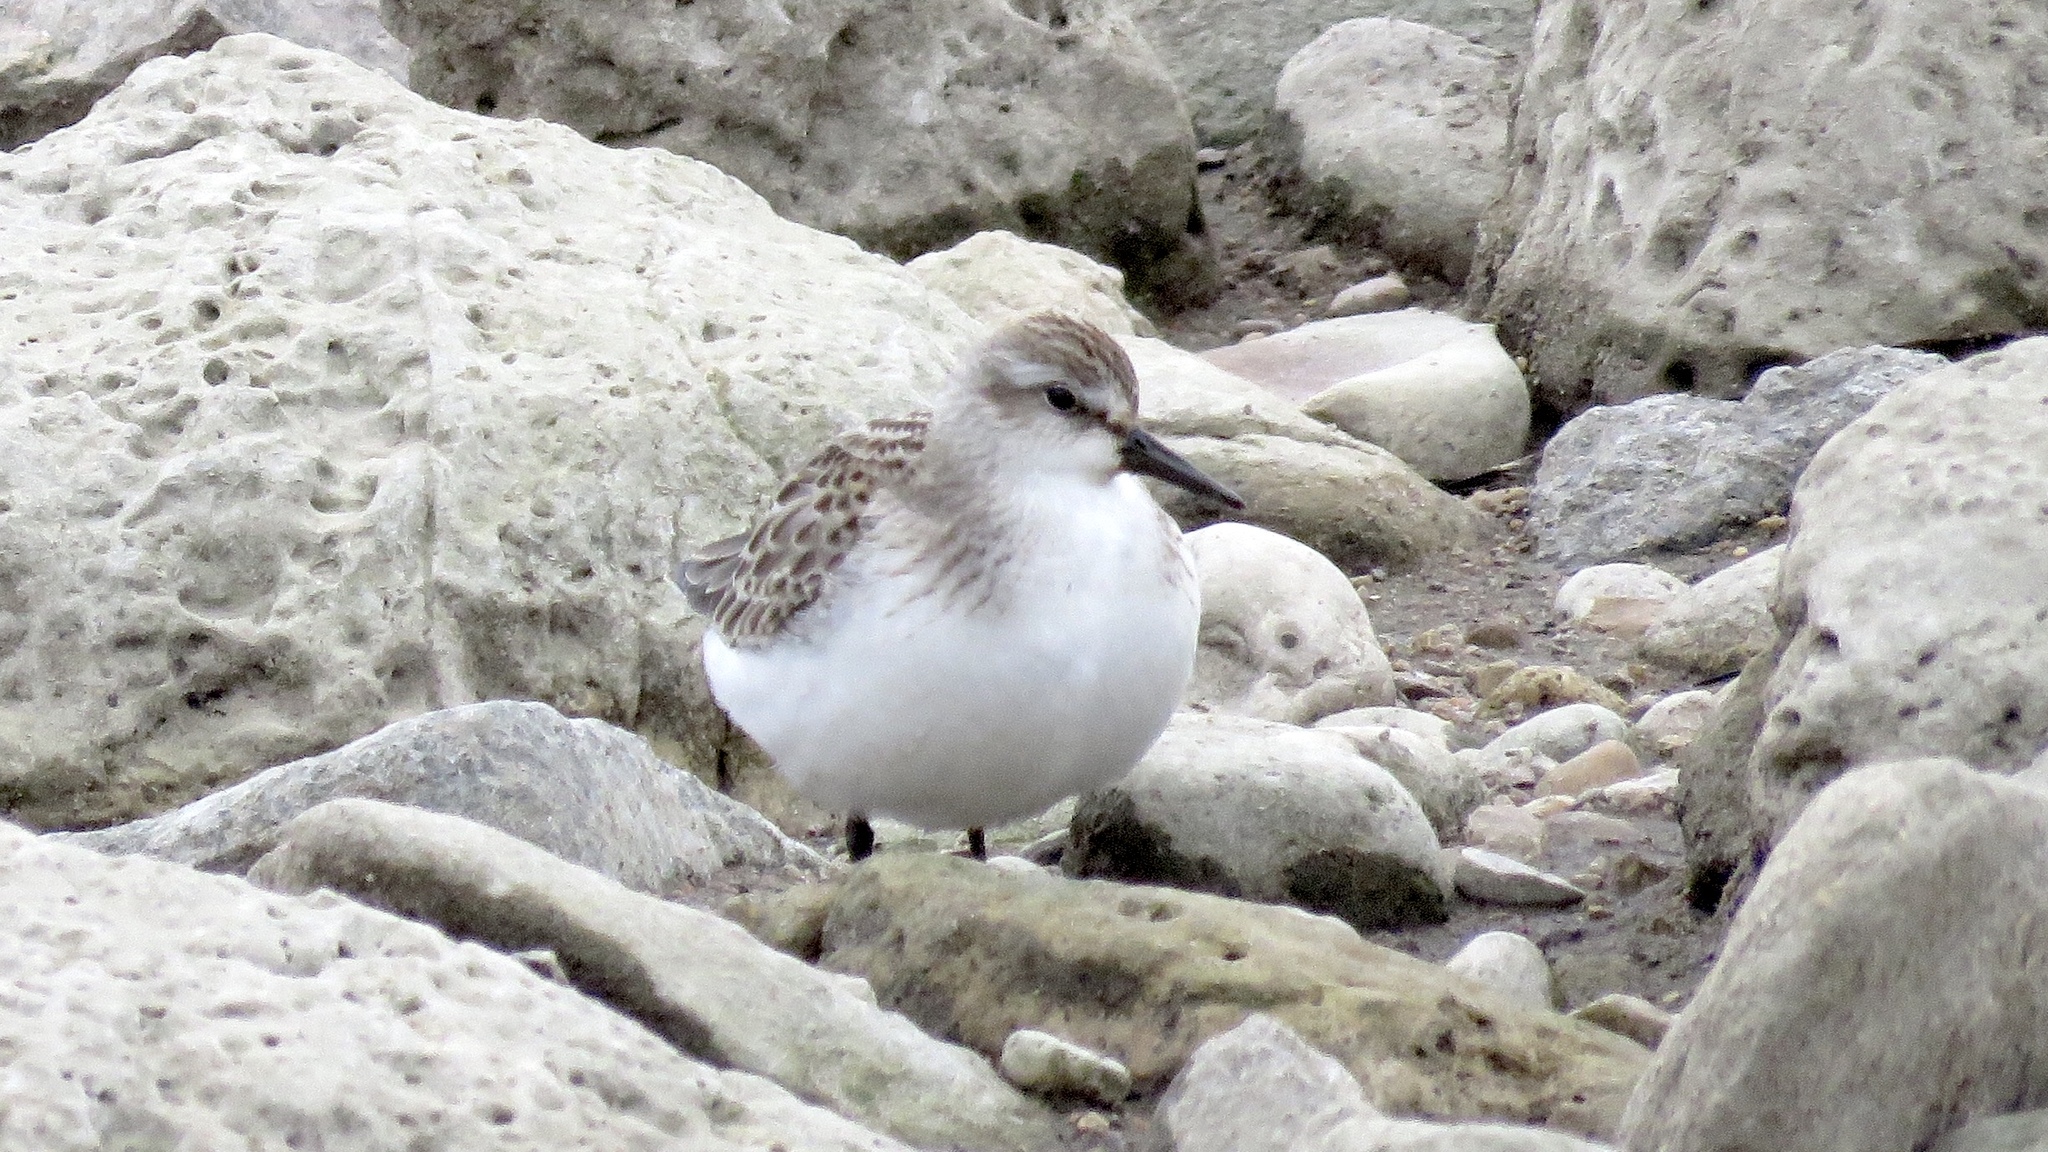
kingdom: Animalia
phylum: Chordata
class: Aves
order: Charadriiformes
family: Scolopacidae
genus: Calidris
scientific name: Calidris pusilla
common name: Semipalmated sandpiper
